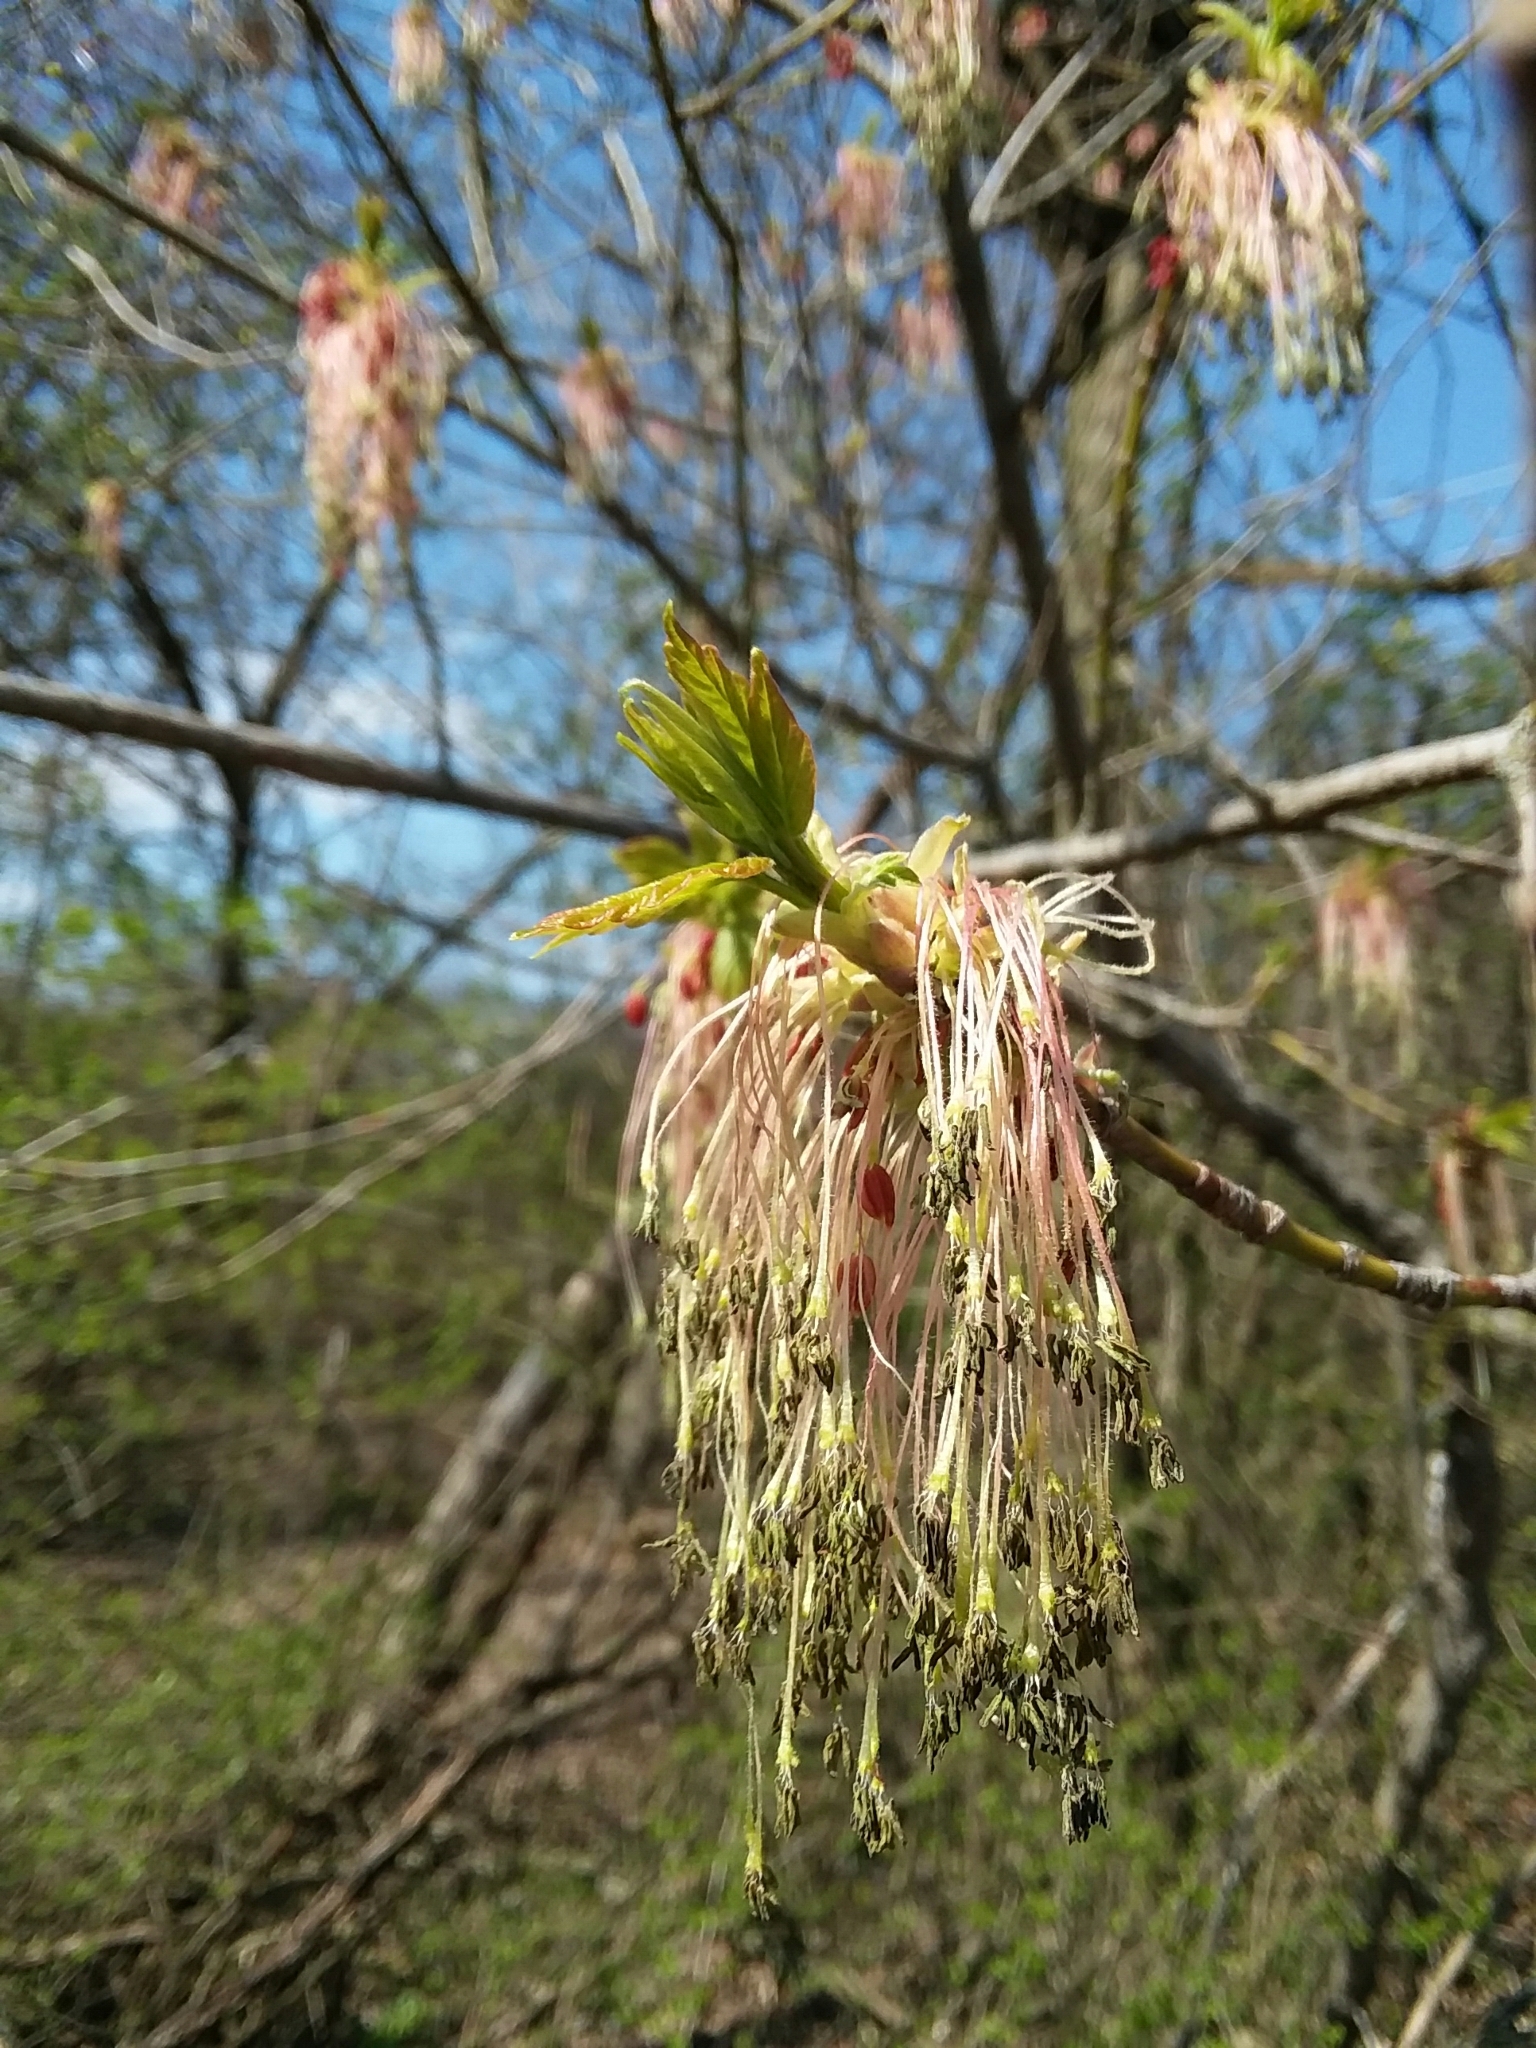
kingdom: Plantae
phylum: Tracheophyta
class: Magnoliopsida
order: Sapindales
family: Sapindaceae
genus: Acer
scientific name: Acer negundo
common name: Ashleaf maple
